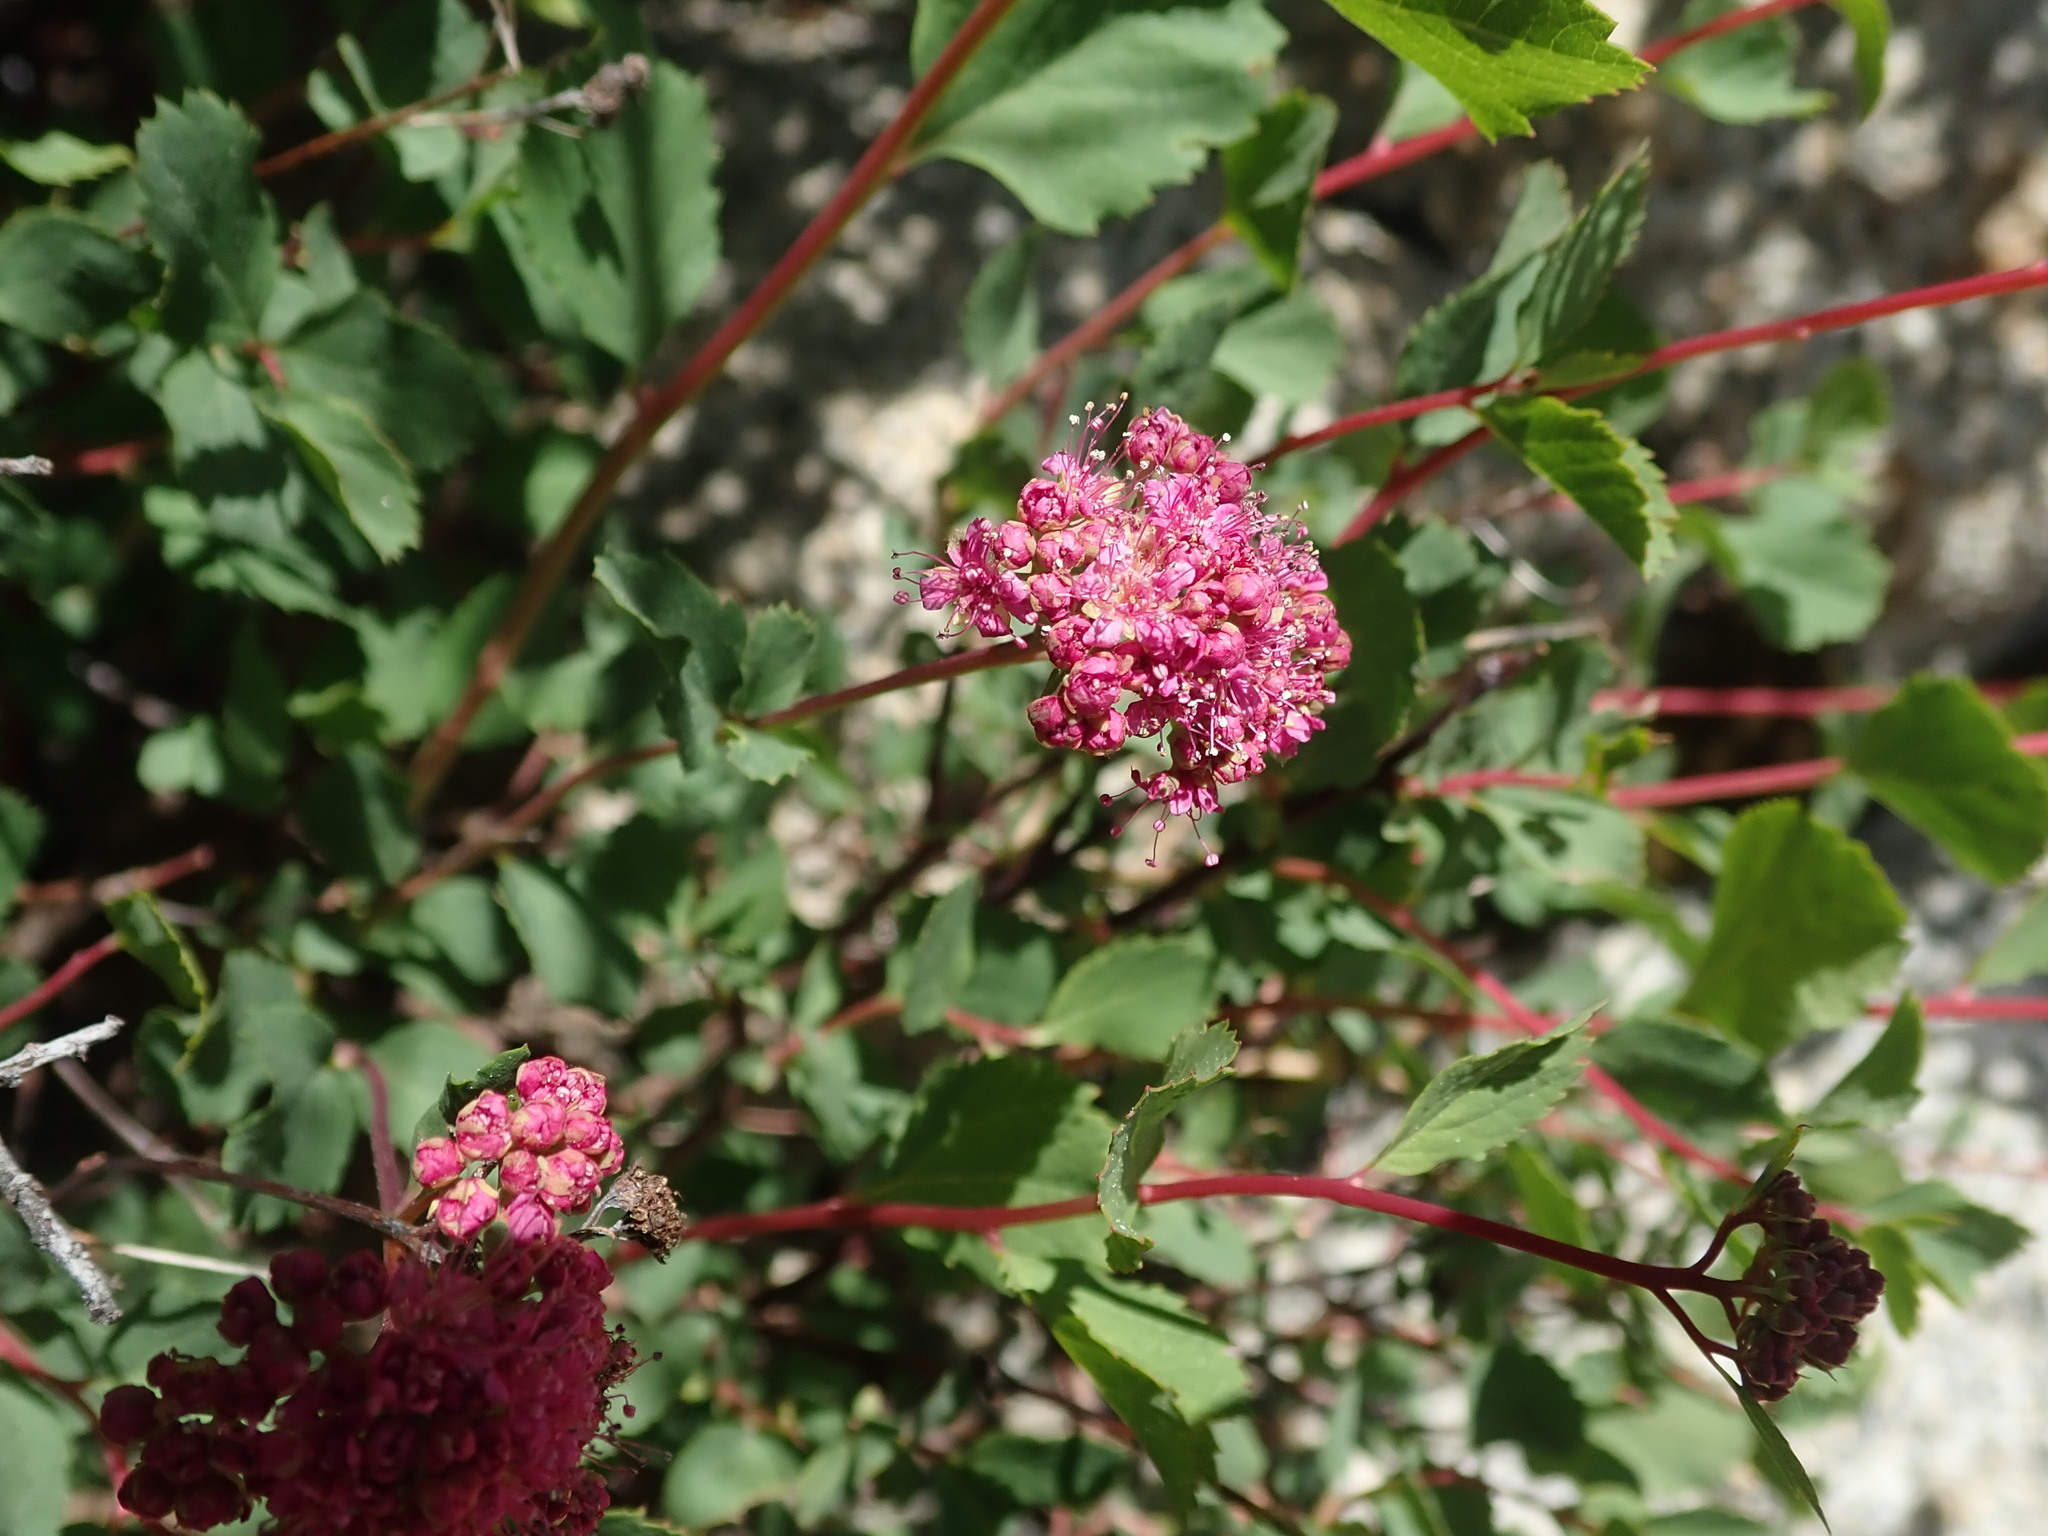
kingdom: Plantae
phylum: Tracheophyta
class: Magnoliopsida
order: Rosales
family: Rosaceae
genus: Spiraea
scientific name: Spiraea splendens
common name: Subalpine meadowsweet
